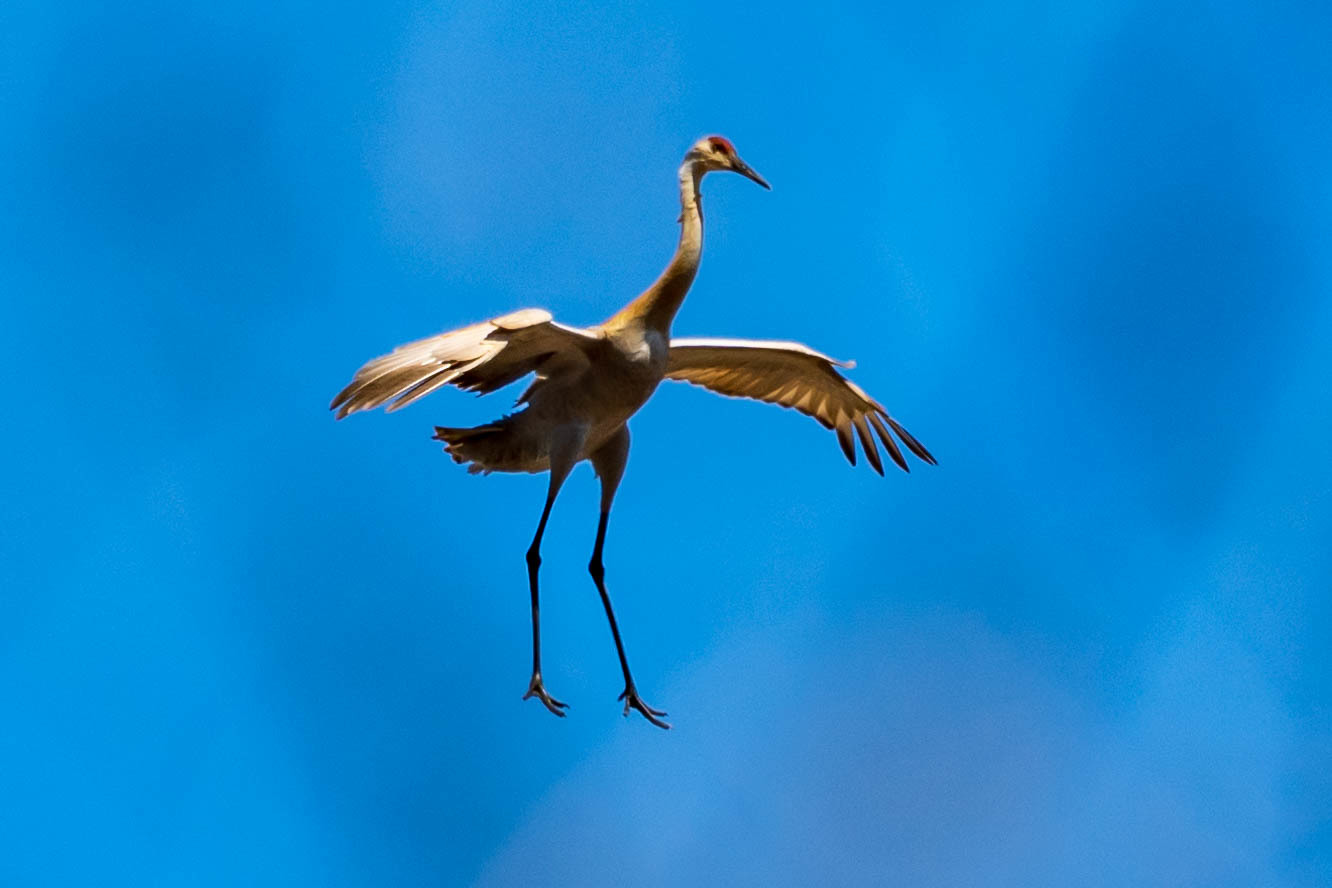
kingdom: Animalia
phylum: Chordata
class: Aves
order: Gruiformes
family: Gruidae
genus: Grus
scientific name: Grus canadensis
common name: Sandhill crane
